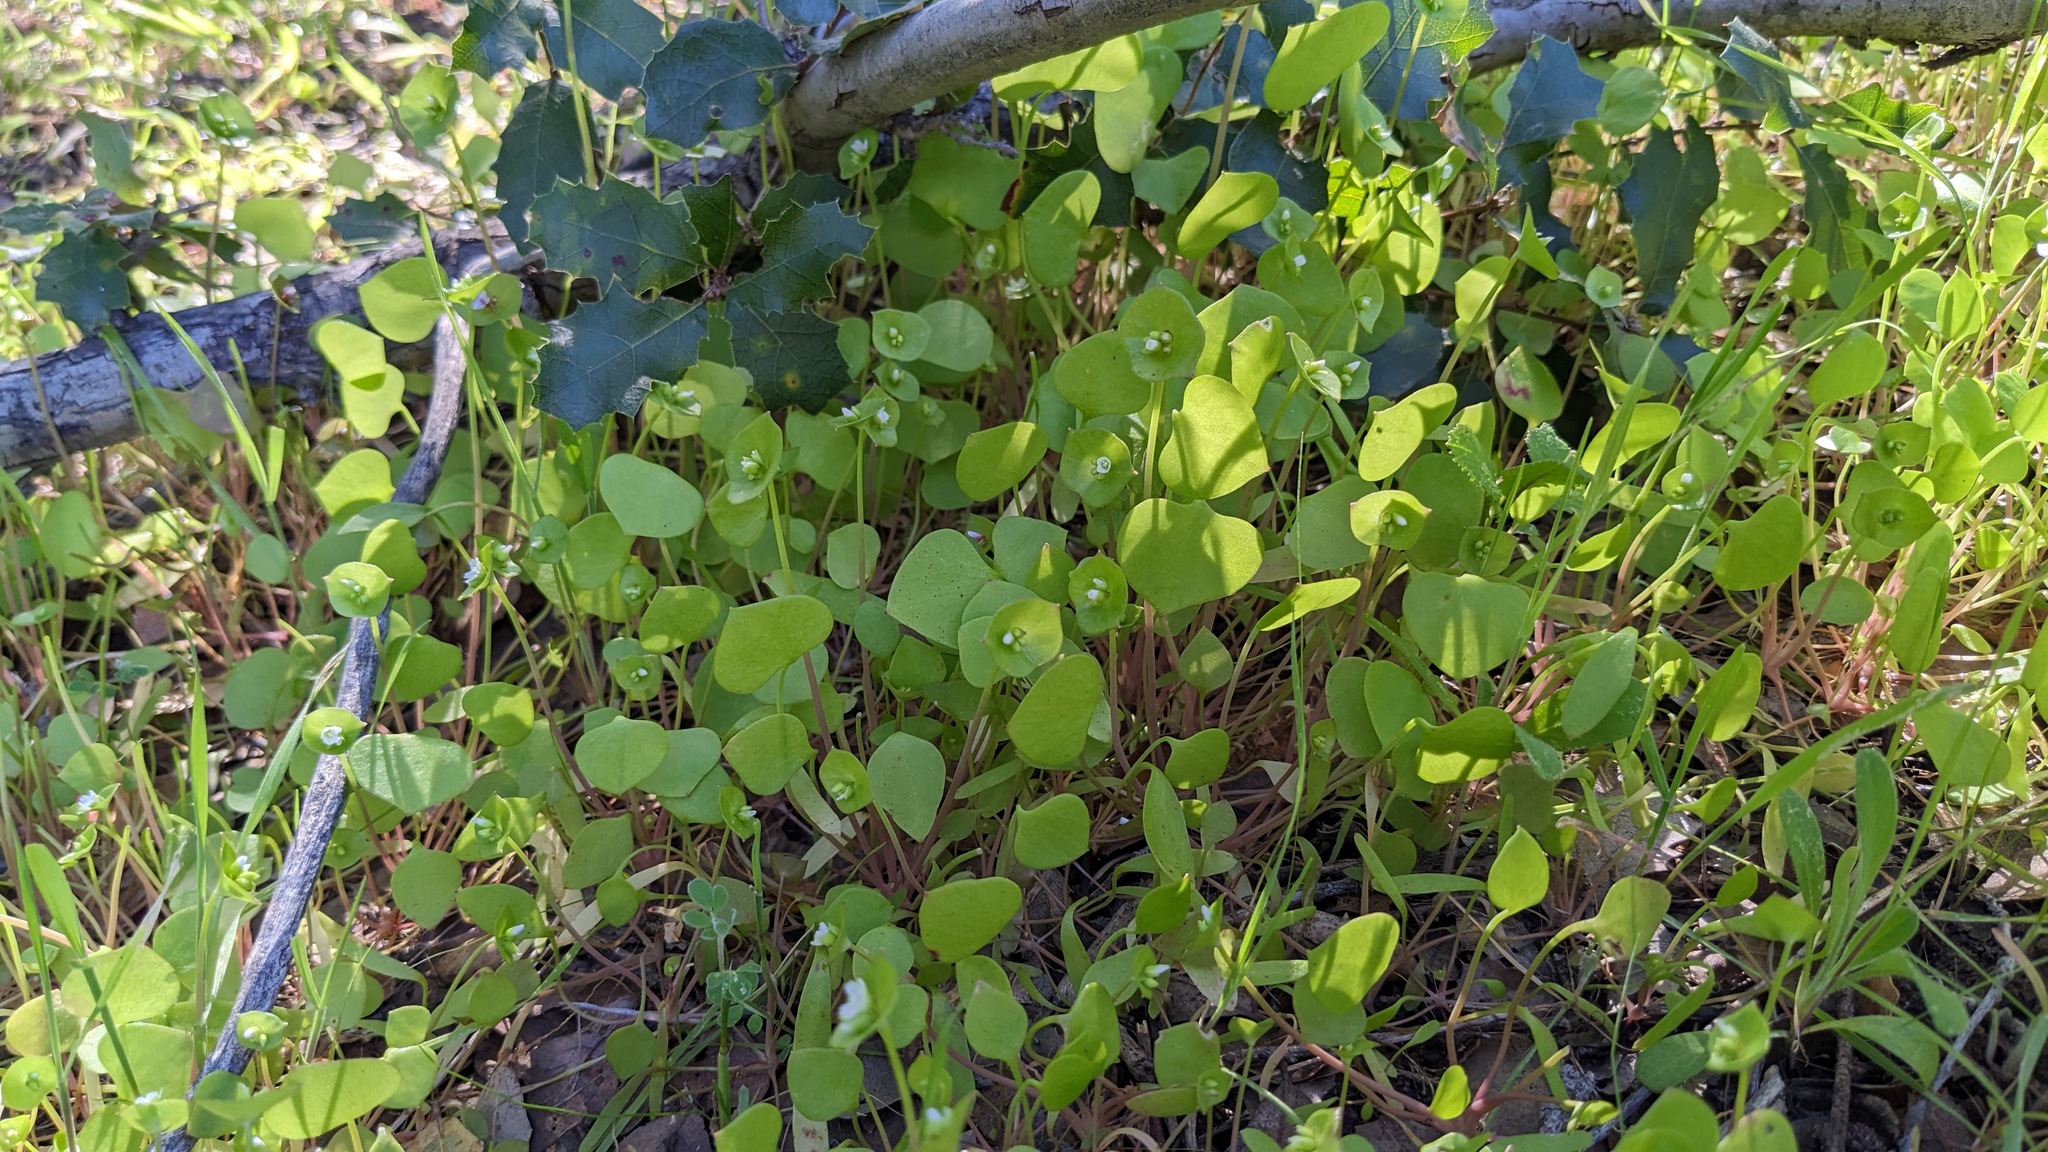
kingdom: Plantae
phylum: Tracheophyta
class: Magnoliopsida
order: Caryophyllales
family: Montiaceae
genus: Claytonia
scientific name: Claytonia perfoliata
